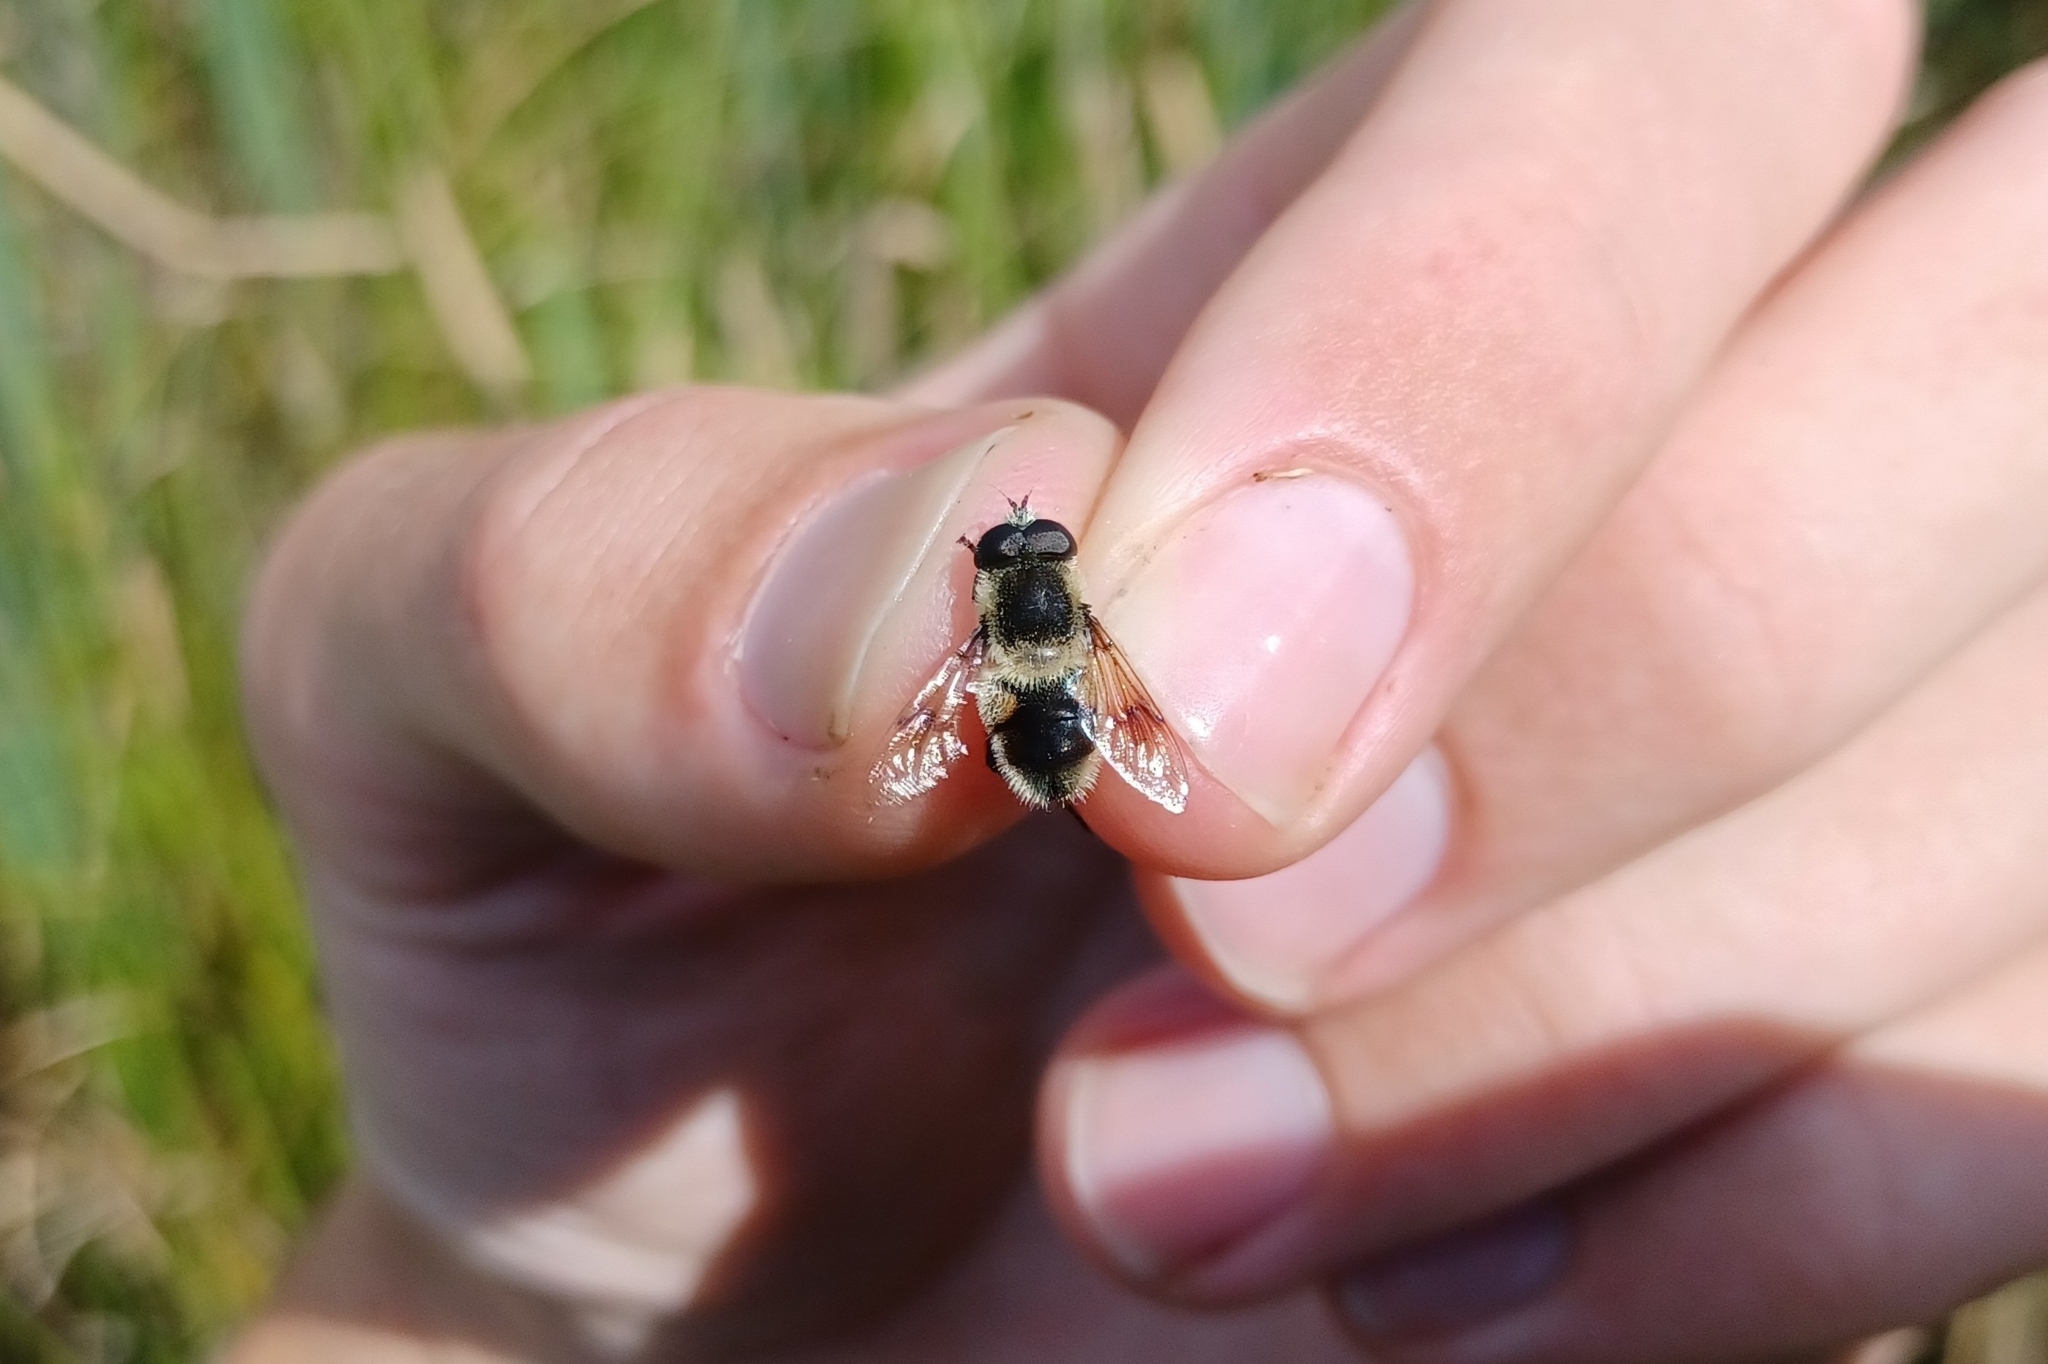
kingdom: Animalia
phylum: Arthropoda
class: Insecta
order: Diptera
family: Syrphidae
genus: Eristalis
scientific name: Eristalis anthophorina
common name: Orange-spotted drone fly
